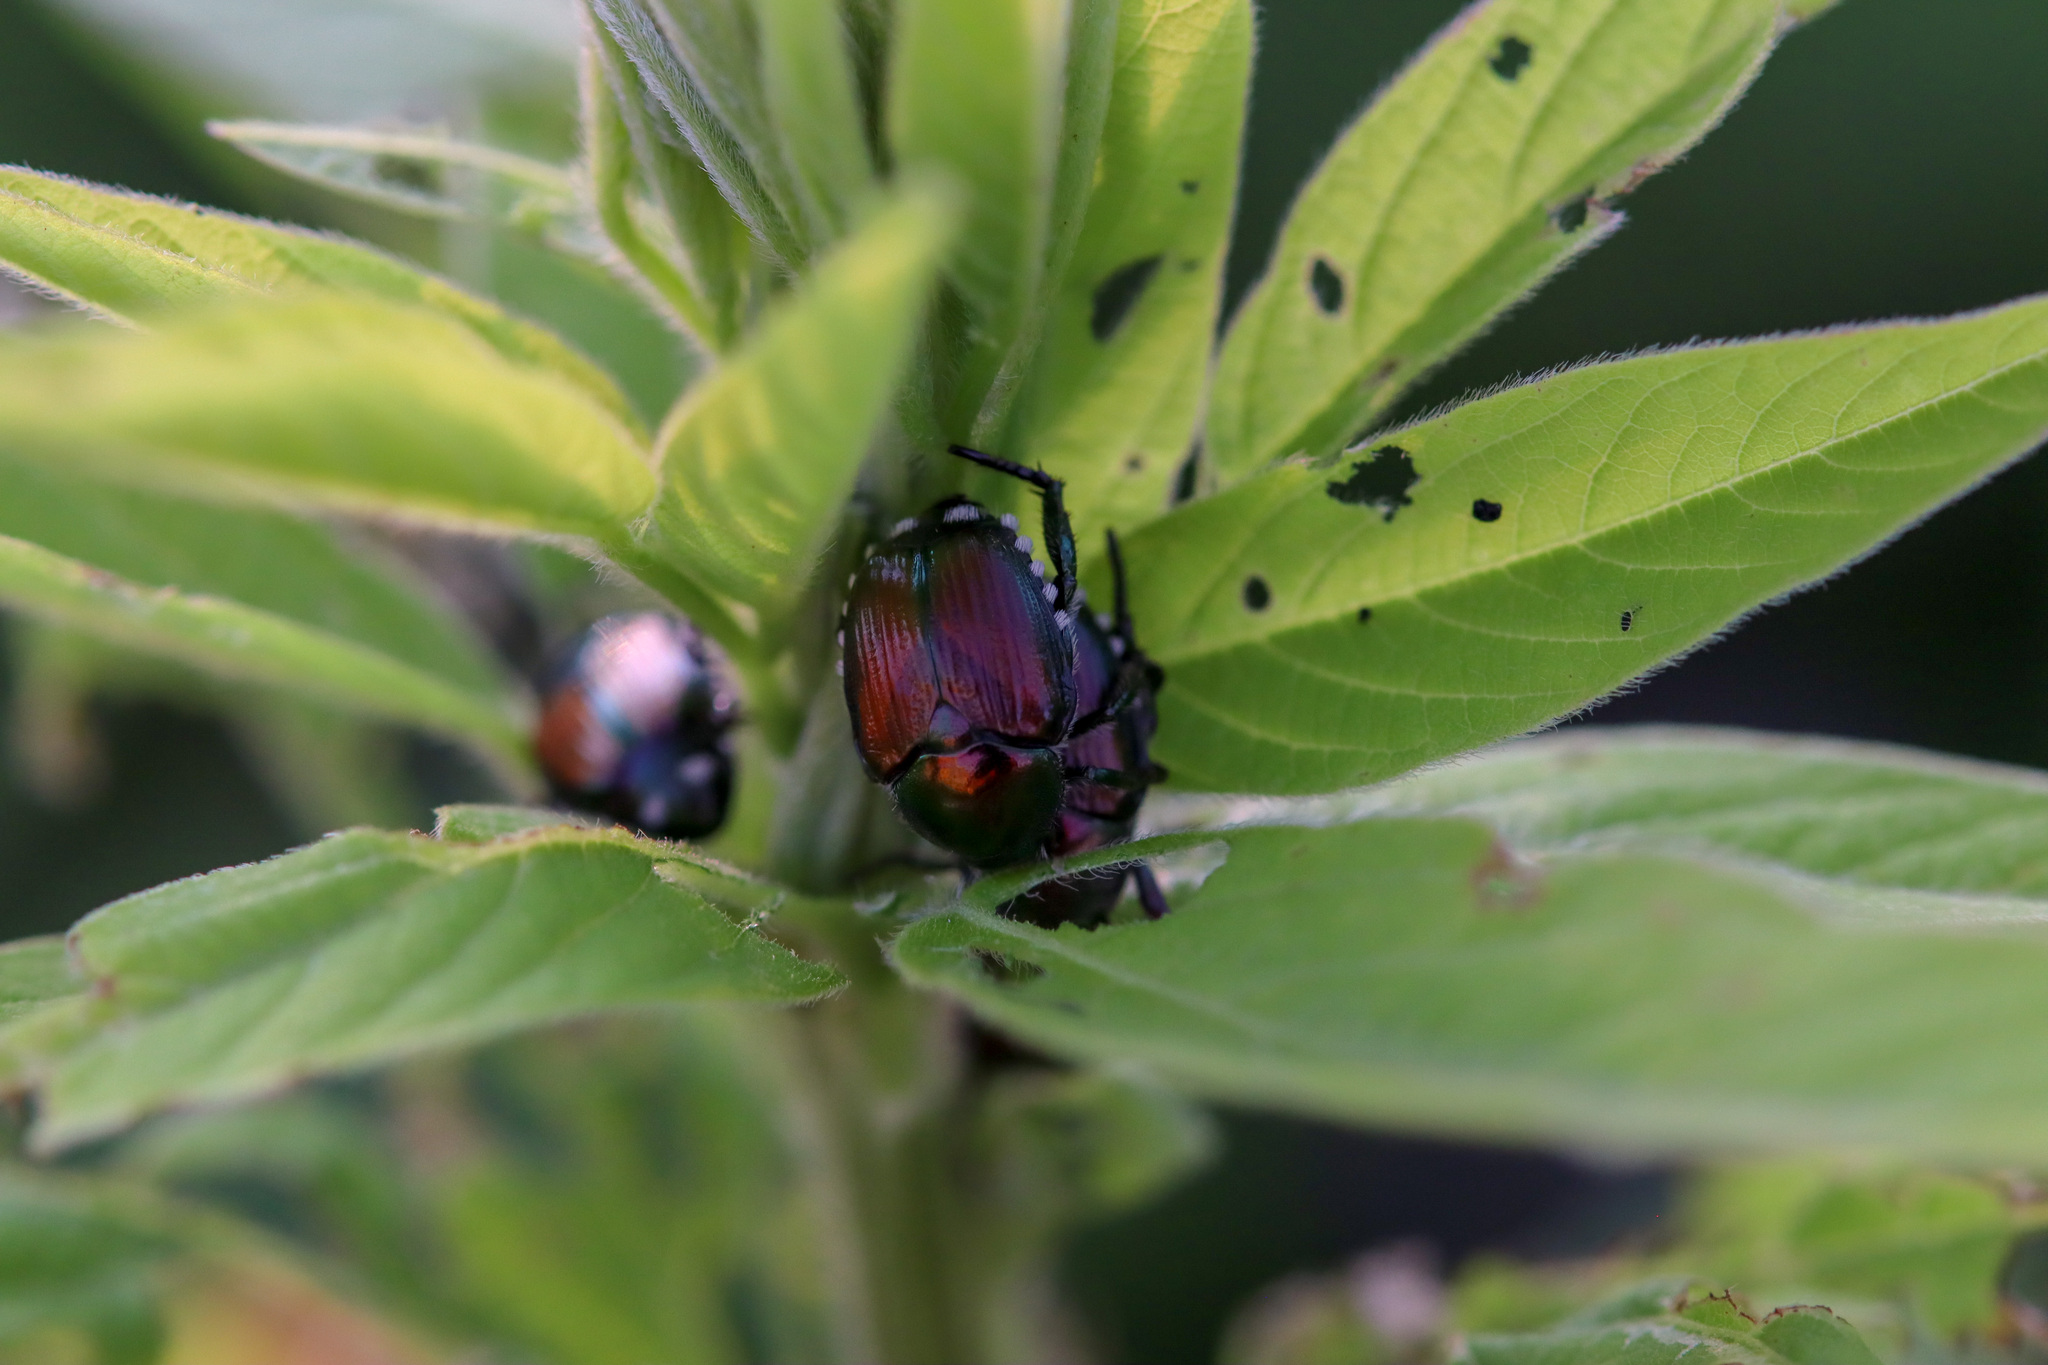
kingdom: Animalia
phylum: Arthropoda
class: Insecta
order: Coleoptera
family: Scarabaeidae
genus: Popillia
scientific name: Popillia japonica
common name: Japanese beetle
